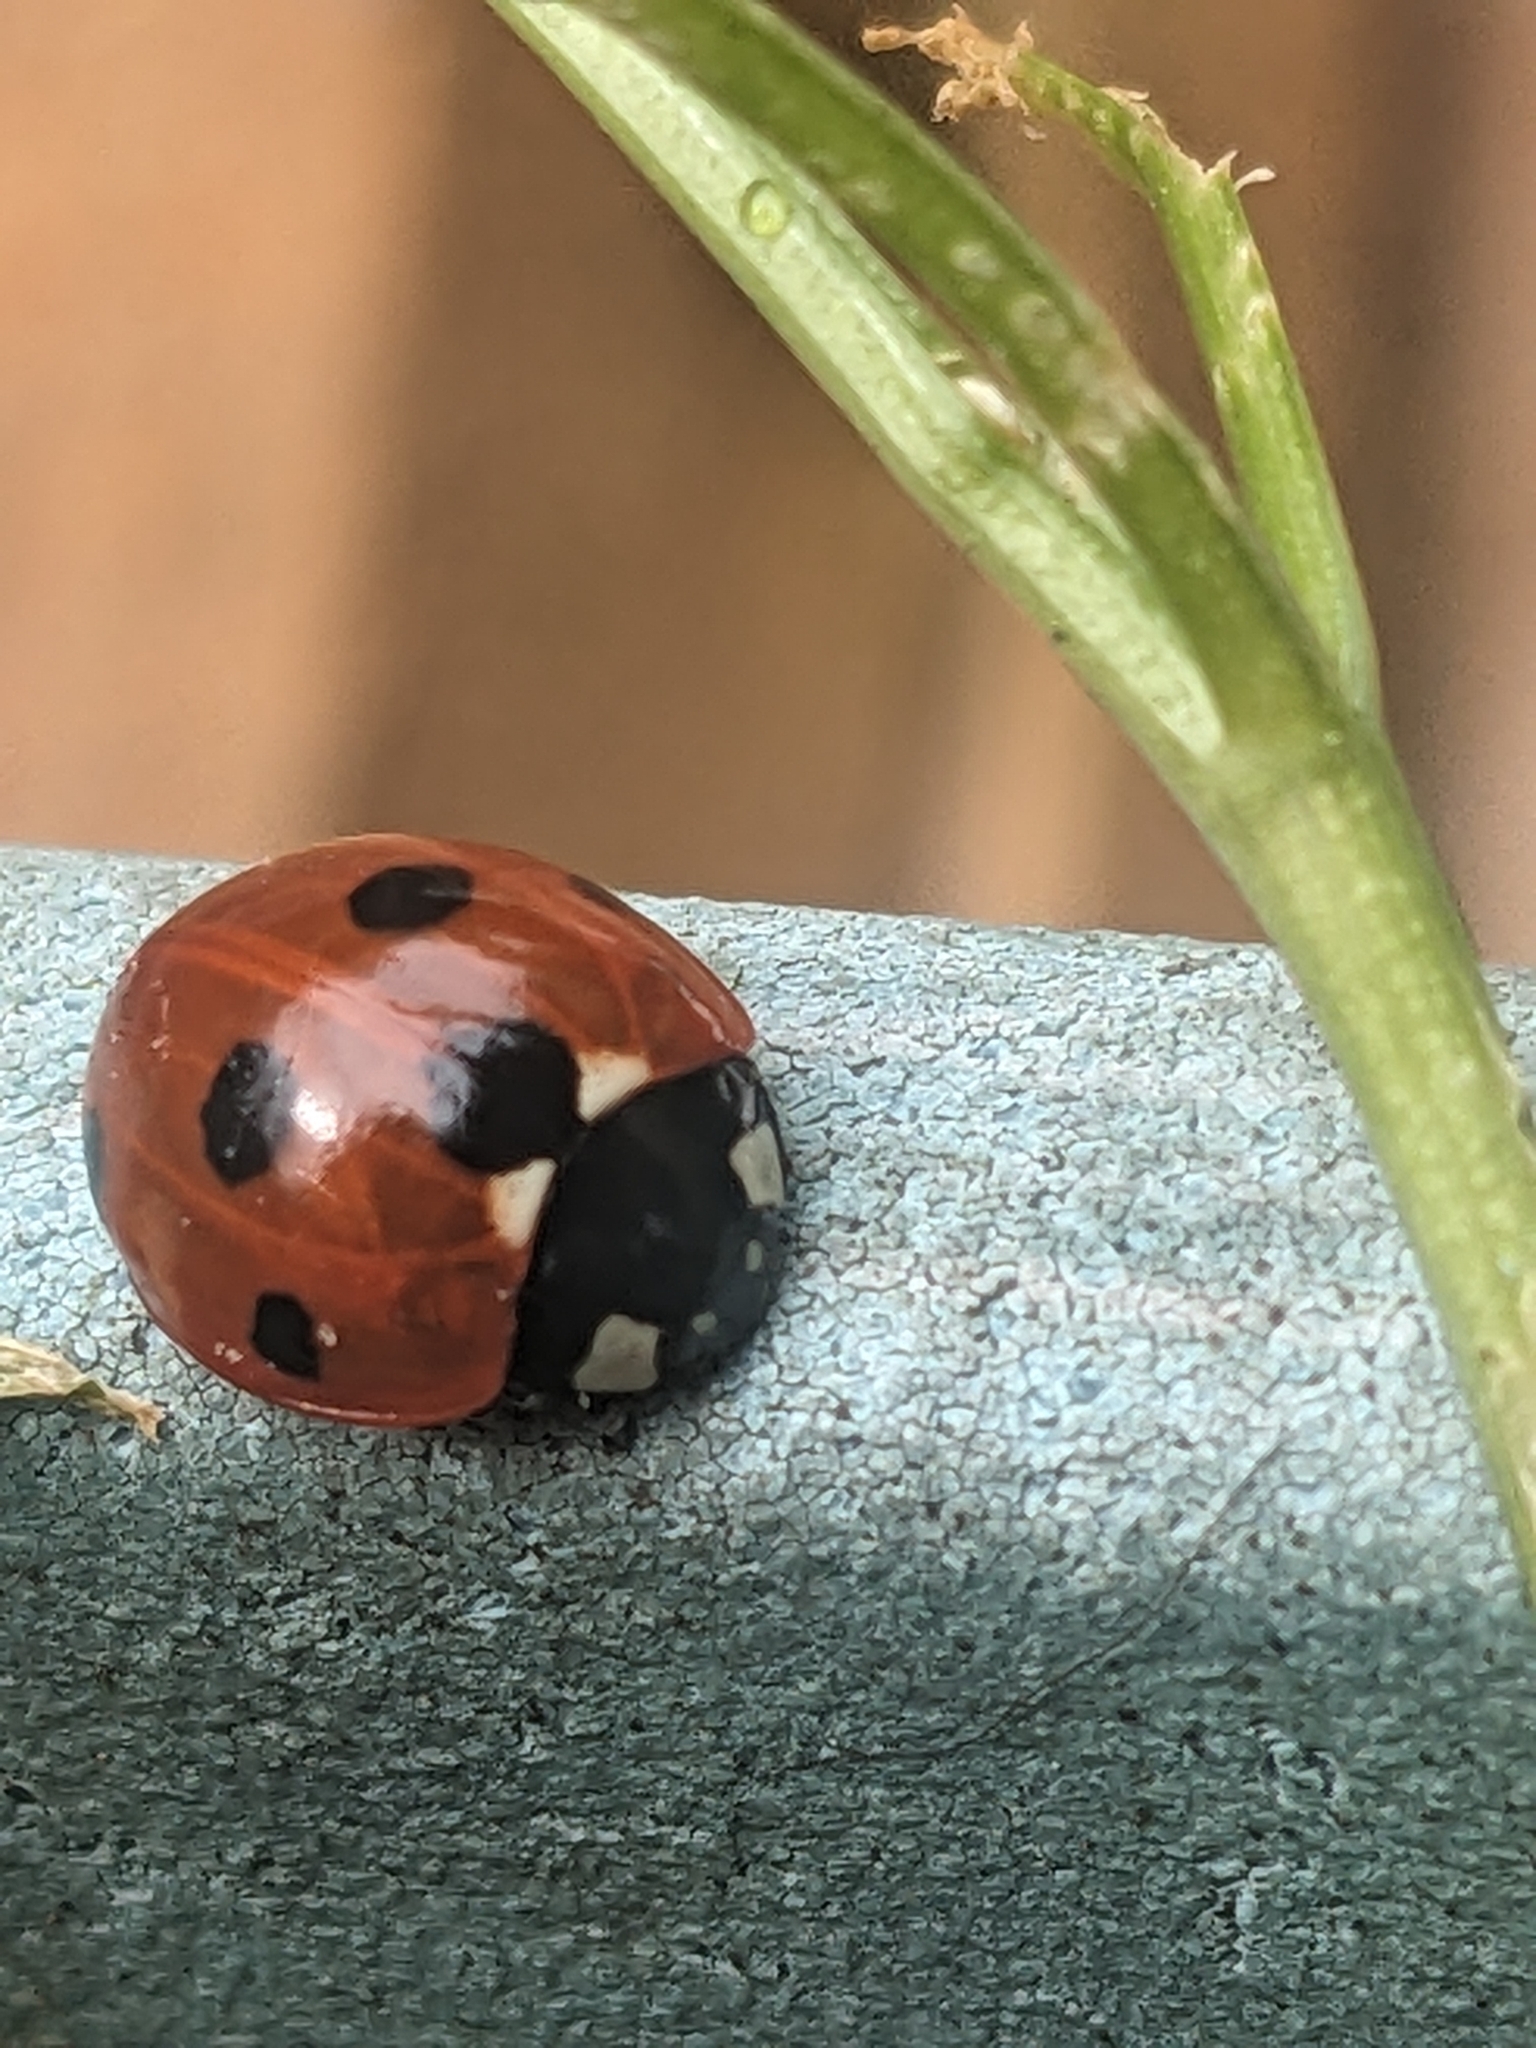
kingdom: Animalia
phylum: Arthropoda
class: Insecta
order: Coleoptera
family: Coccinellidae
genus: Coccinella
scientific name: Coccinella septempunctata
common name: Sevenspotted lady beetle
